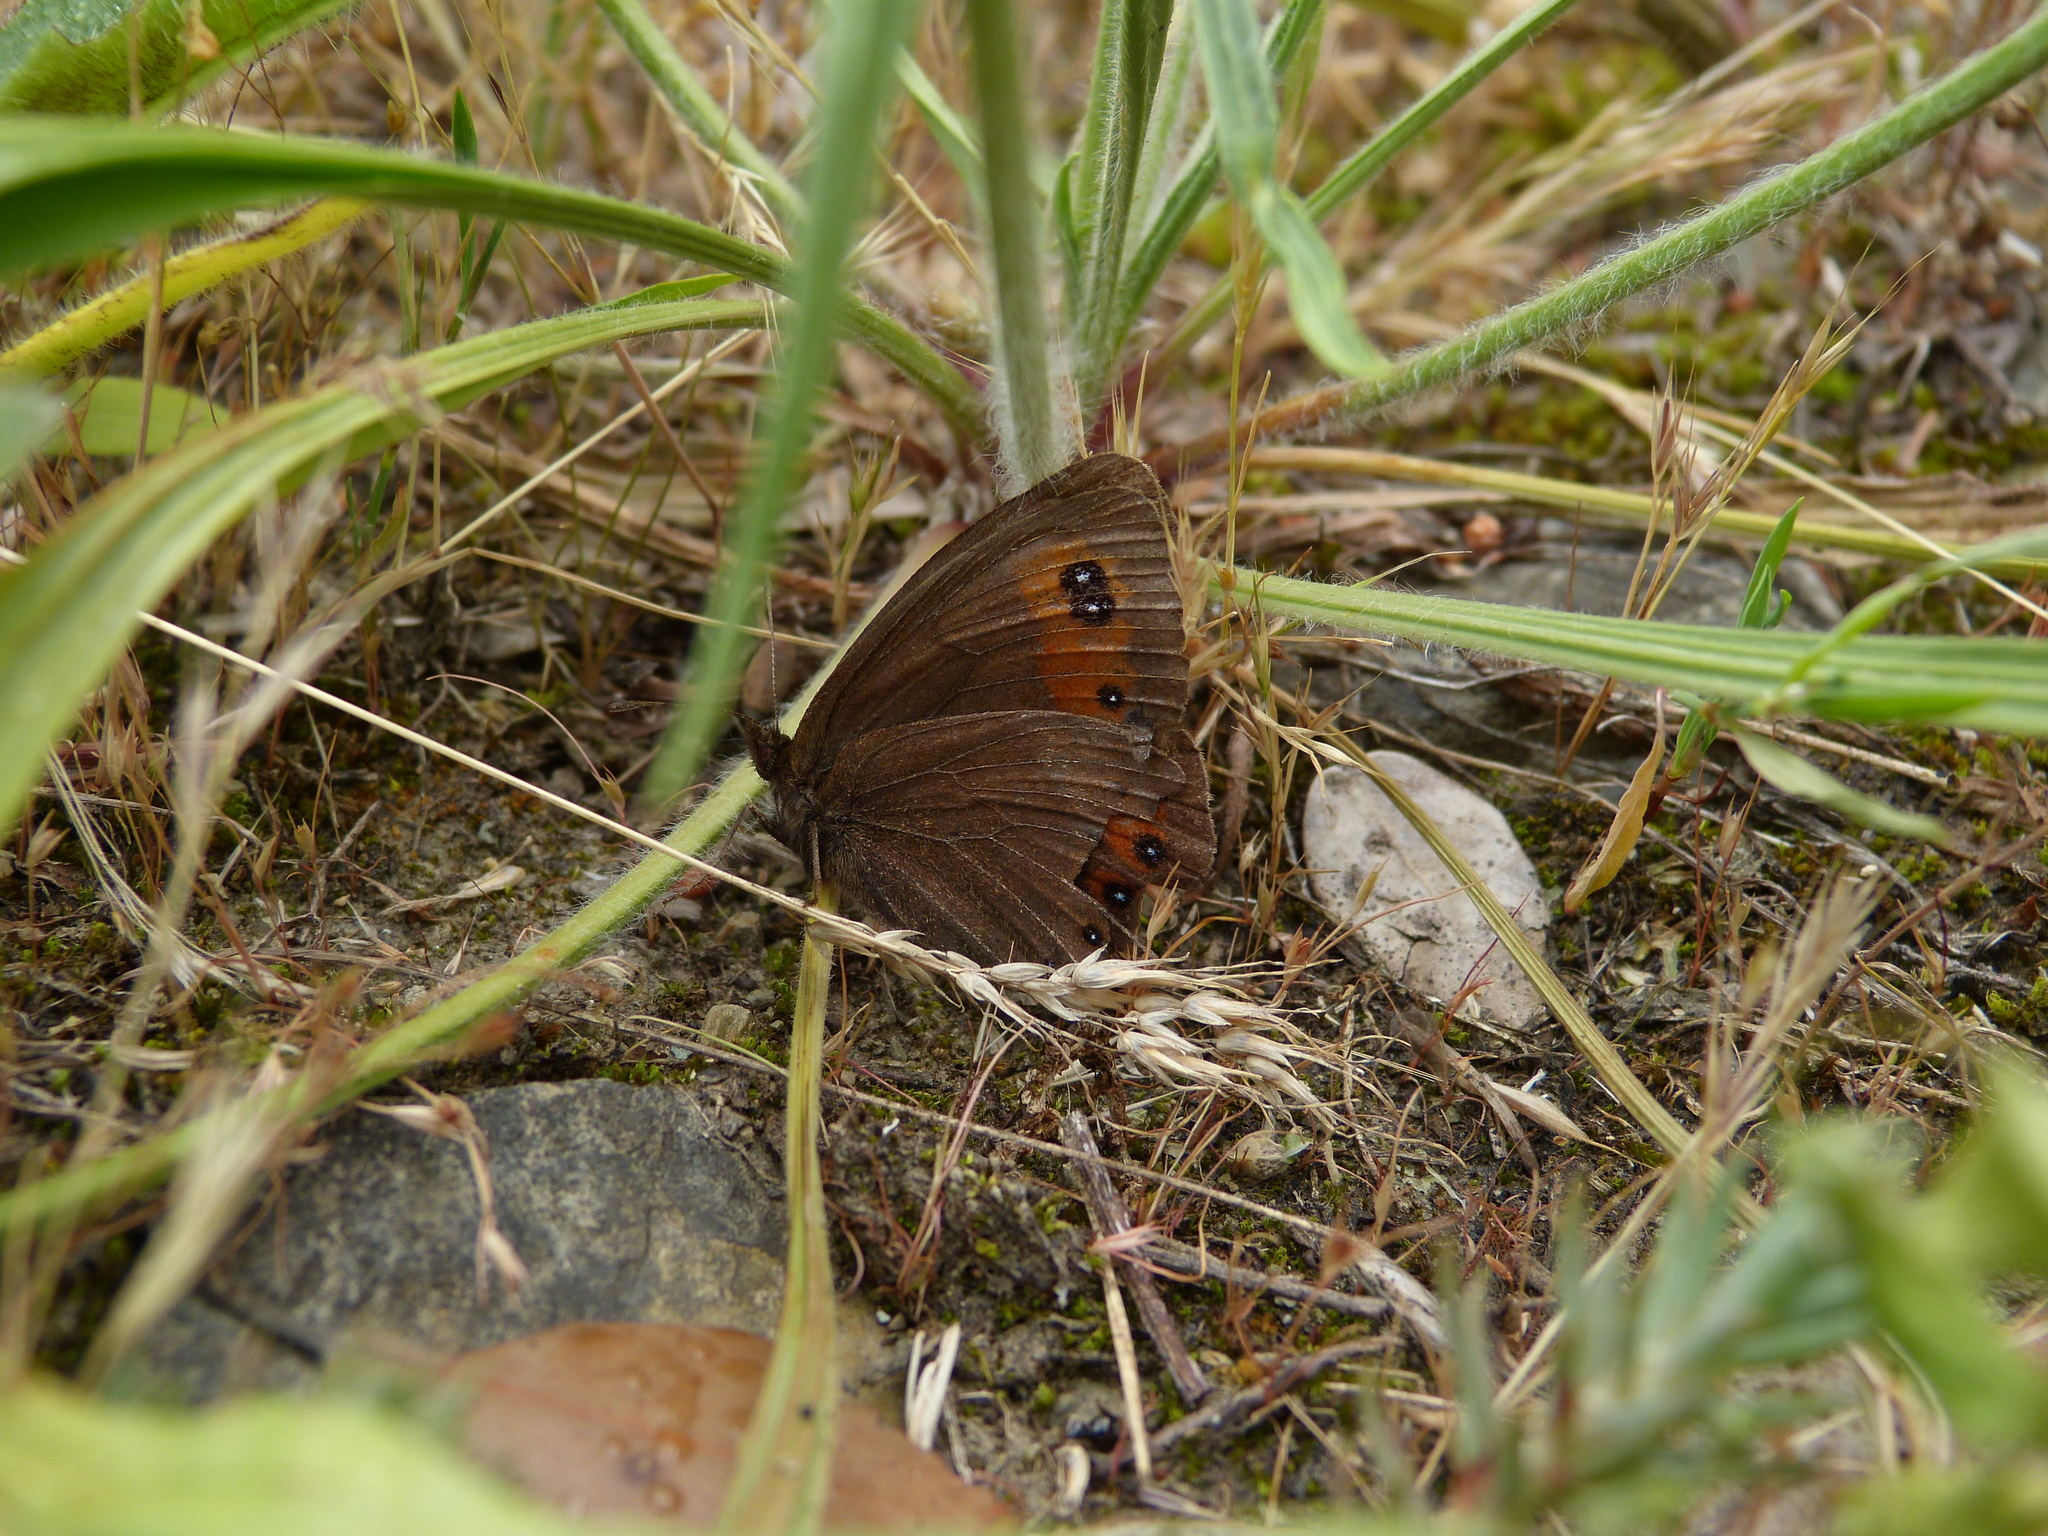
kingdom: Animalia
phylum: Arthropoda
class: Insecta
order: Lepidoptera
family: Nymphalidae
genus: Erebia
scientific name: Erebia meolans
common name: Piedmont ringlet
